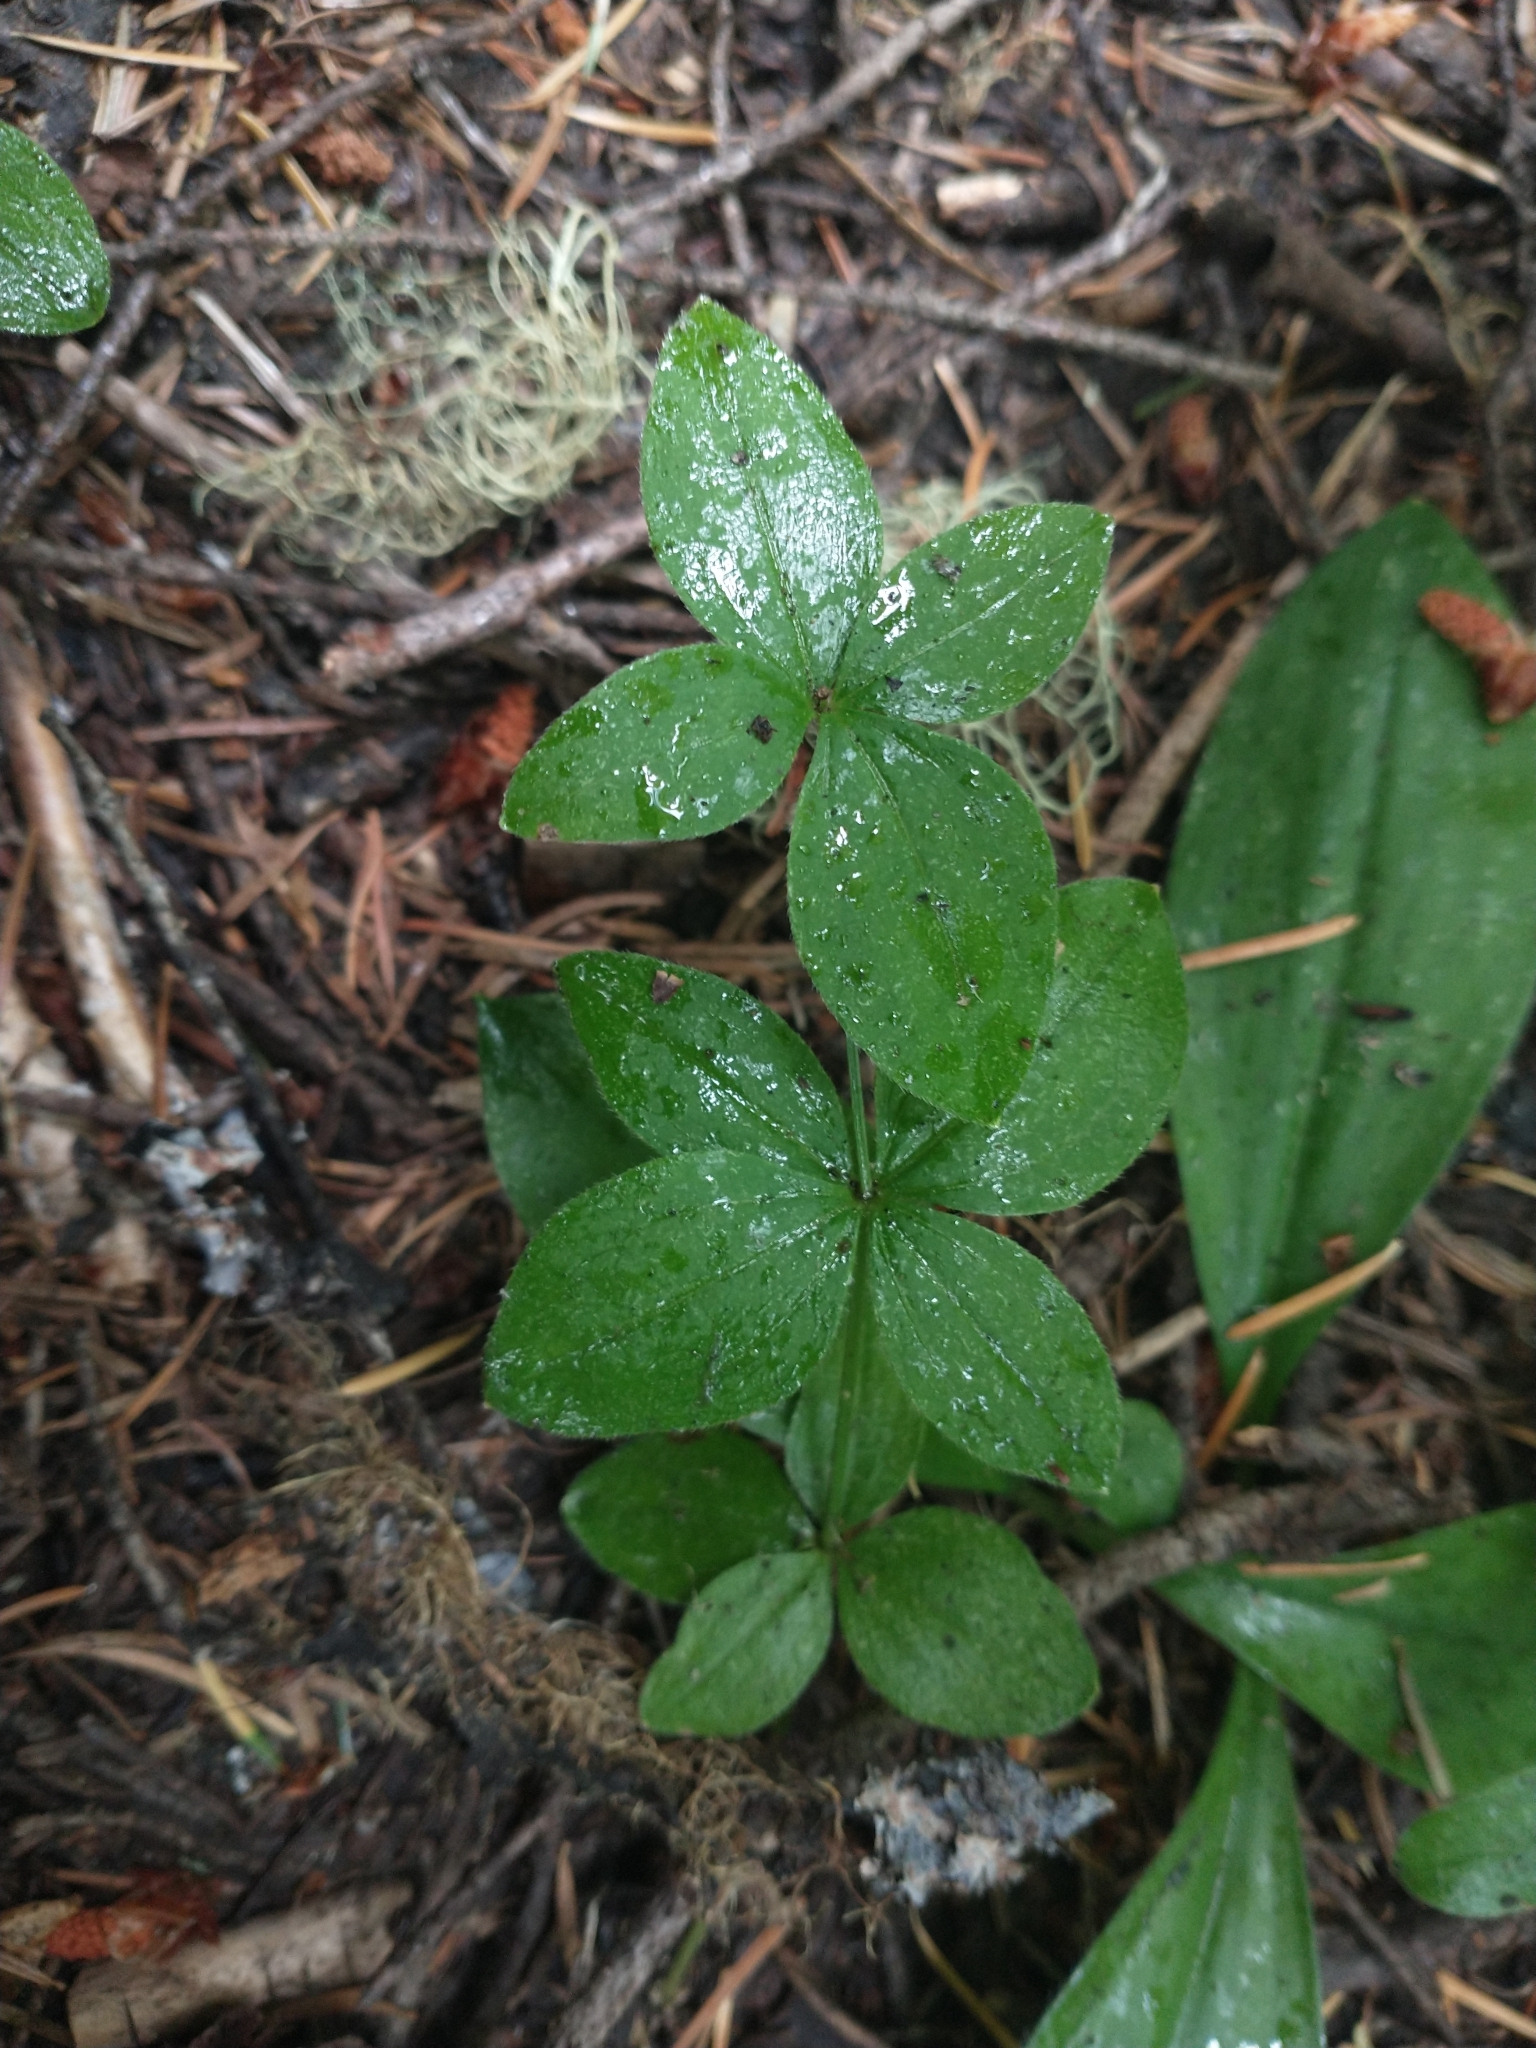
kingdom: Plantae
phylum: Tracheophyta
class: Magnoliopsida
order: Gentianales
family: Rubiaceae
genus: Galium
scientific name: Galium oreganum
